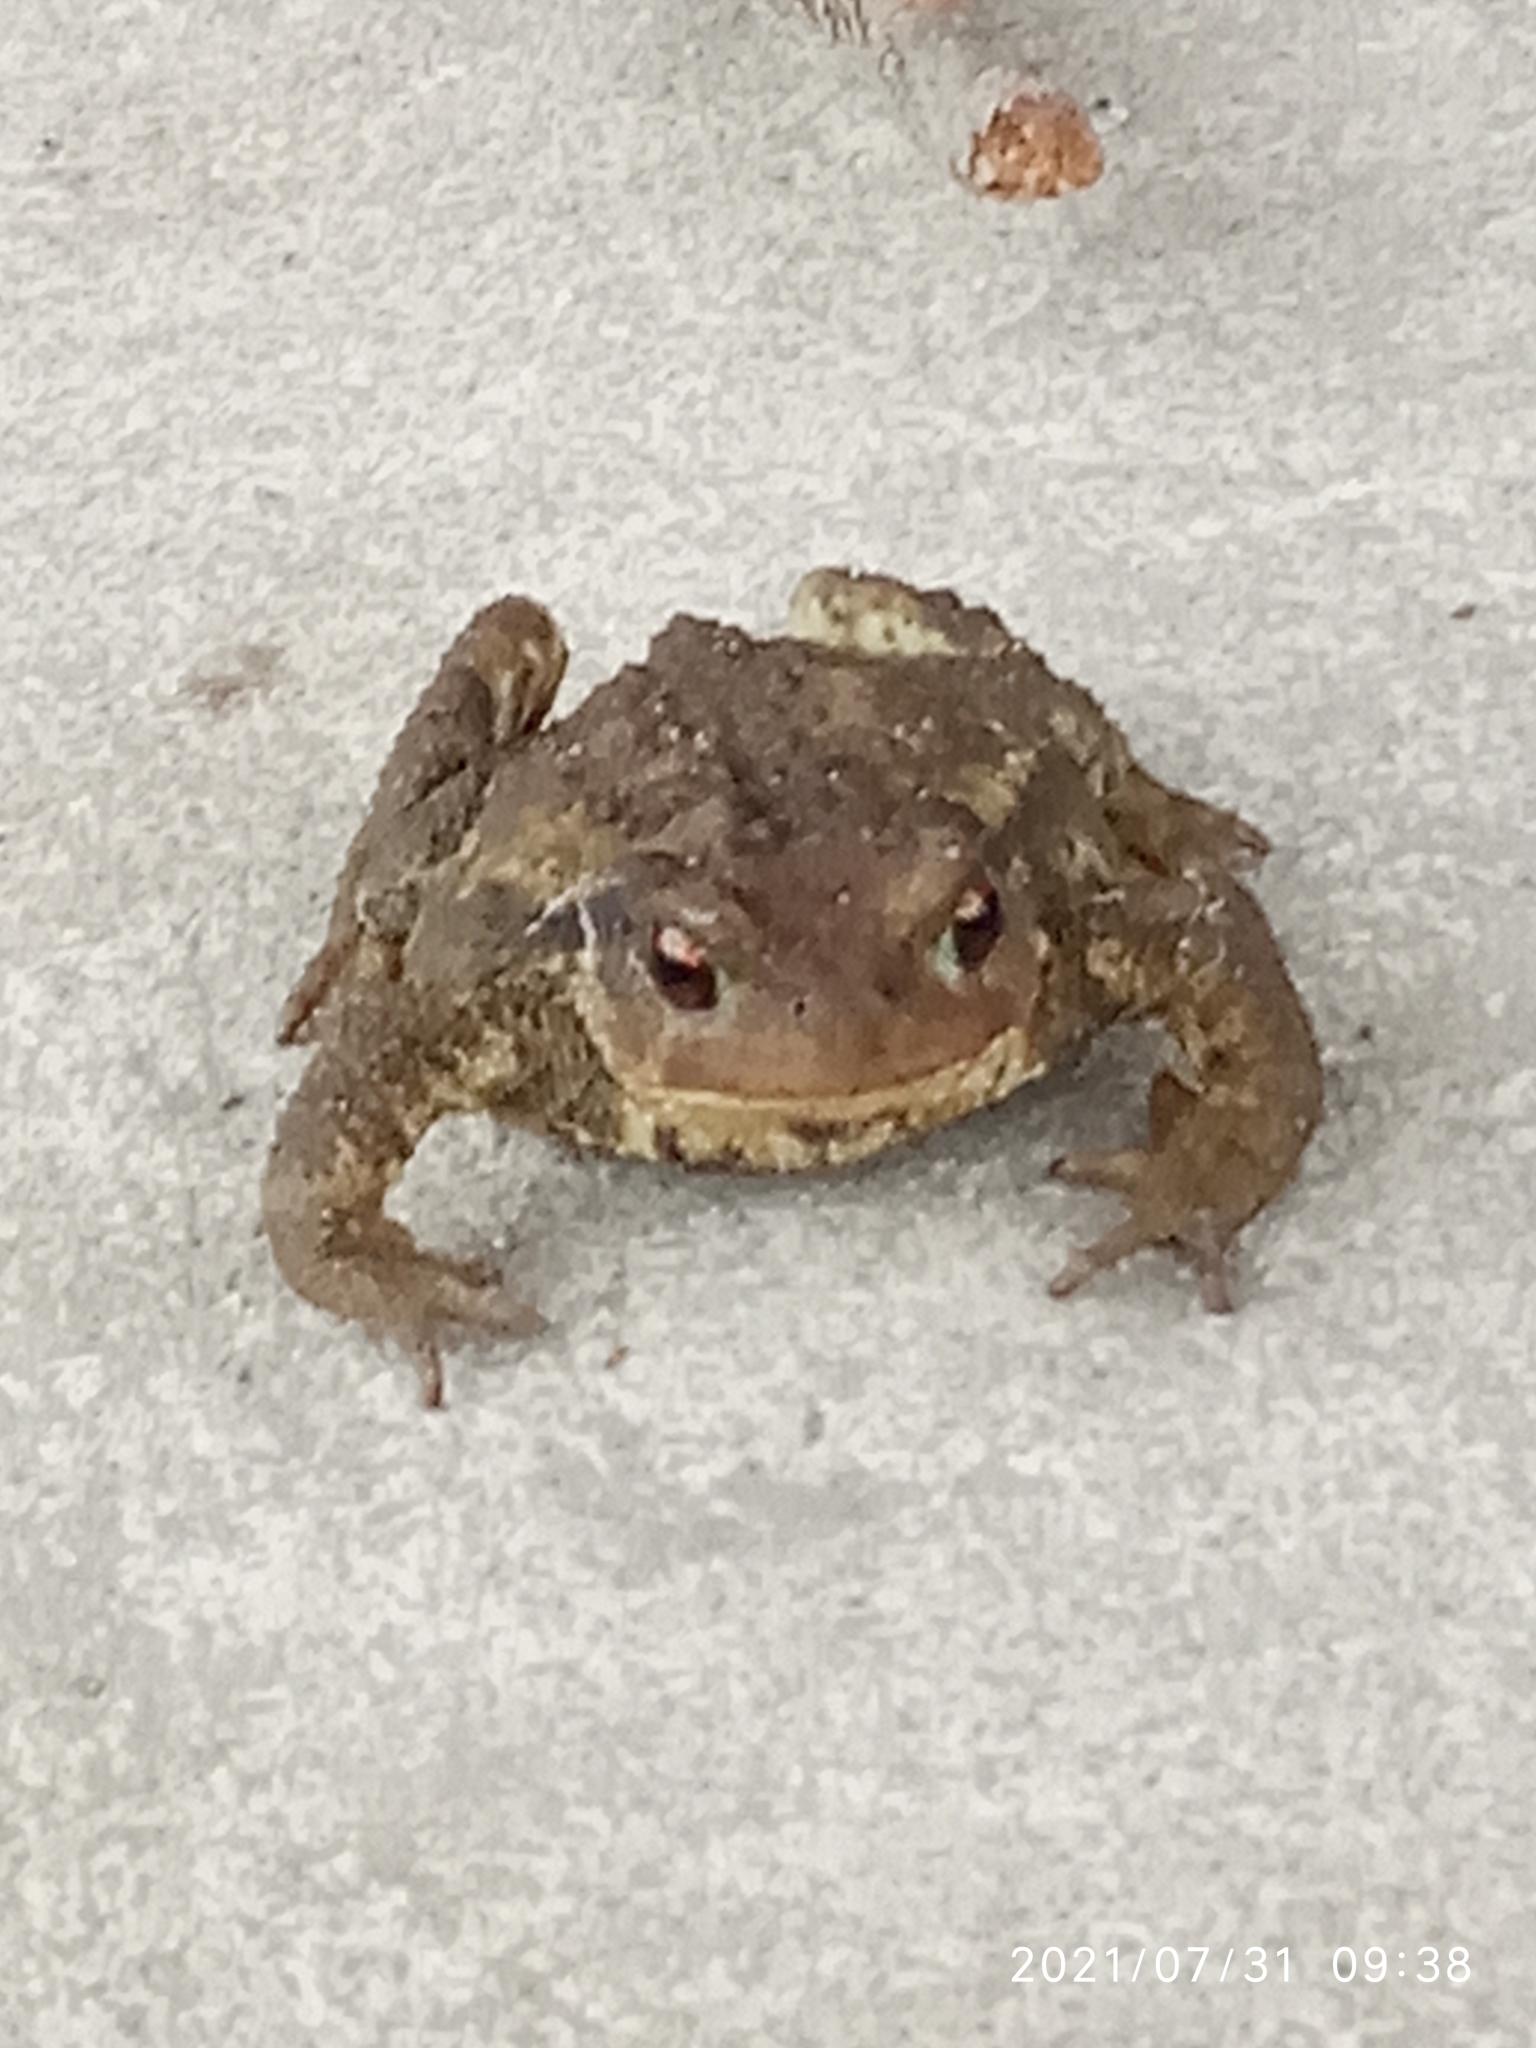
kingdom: Animalia
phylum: Chordata
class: Amphibia
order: Anura
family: Bufonidae
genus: Bufo
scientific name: Bufo spinosus
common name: Western common toad
